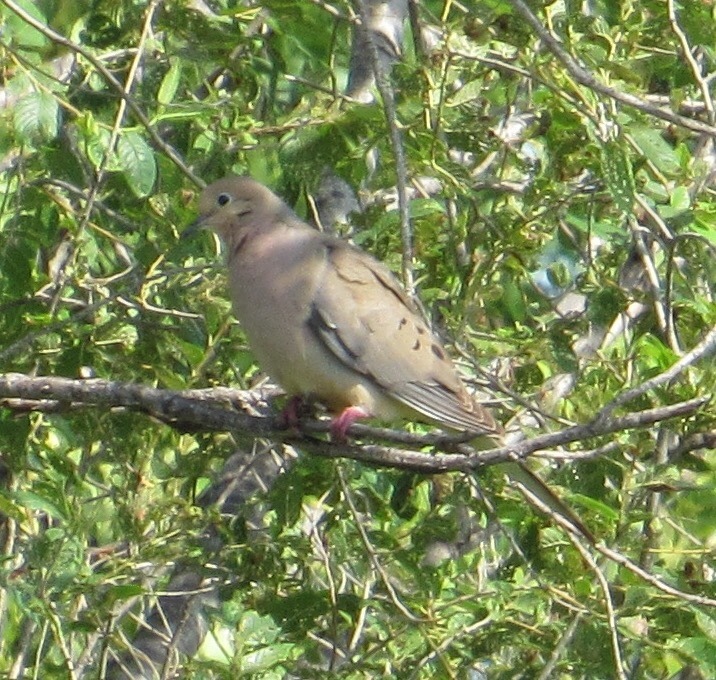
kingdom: Animalia
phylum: Chordata
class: Aves
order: Columbiformes
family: Columbidae
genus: Zenaida
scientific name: Zenaida macroura
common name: Mourning dove
